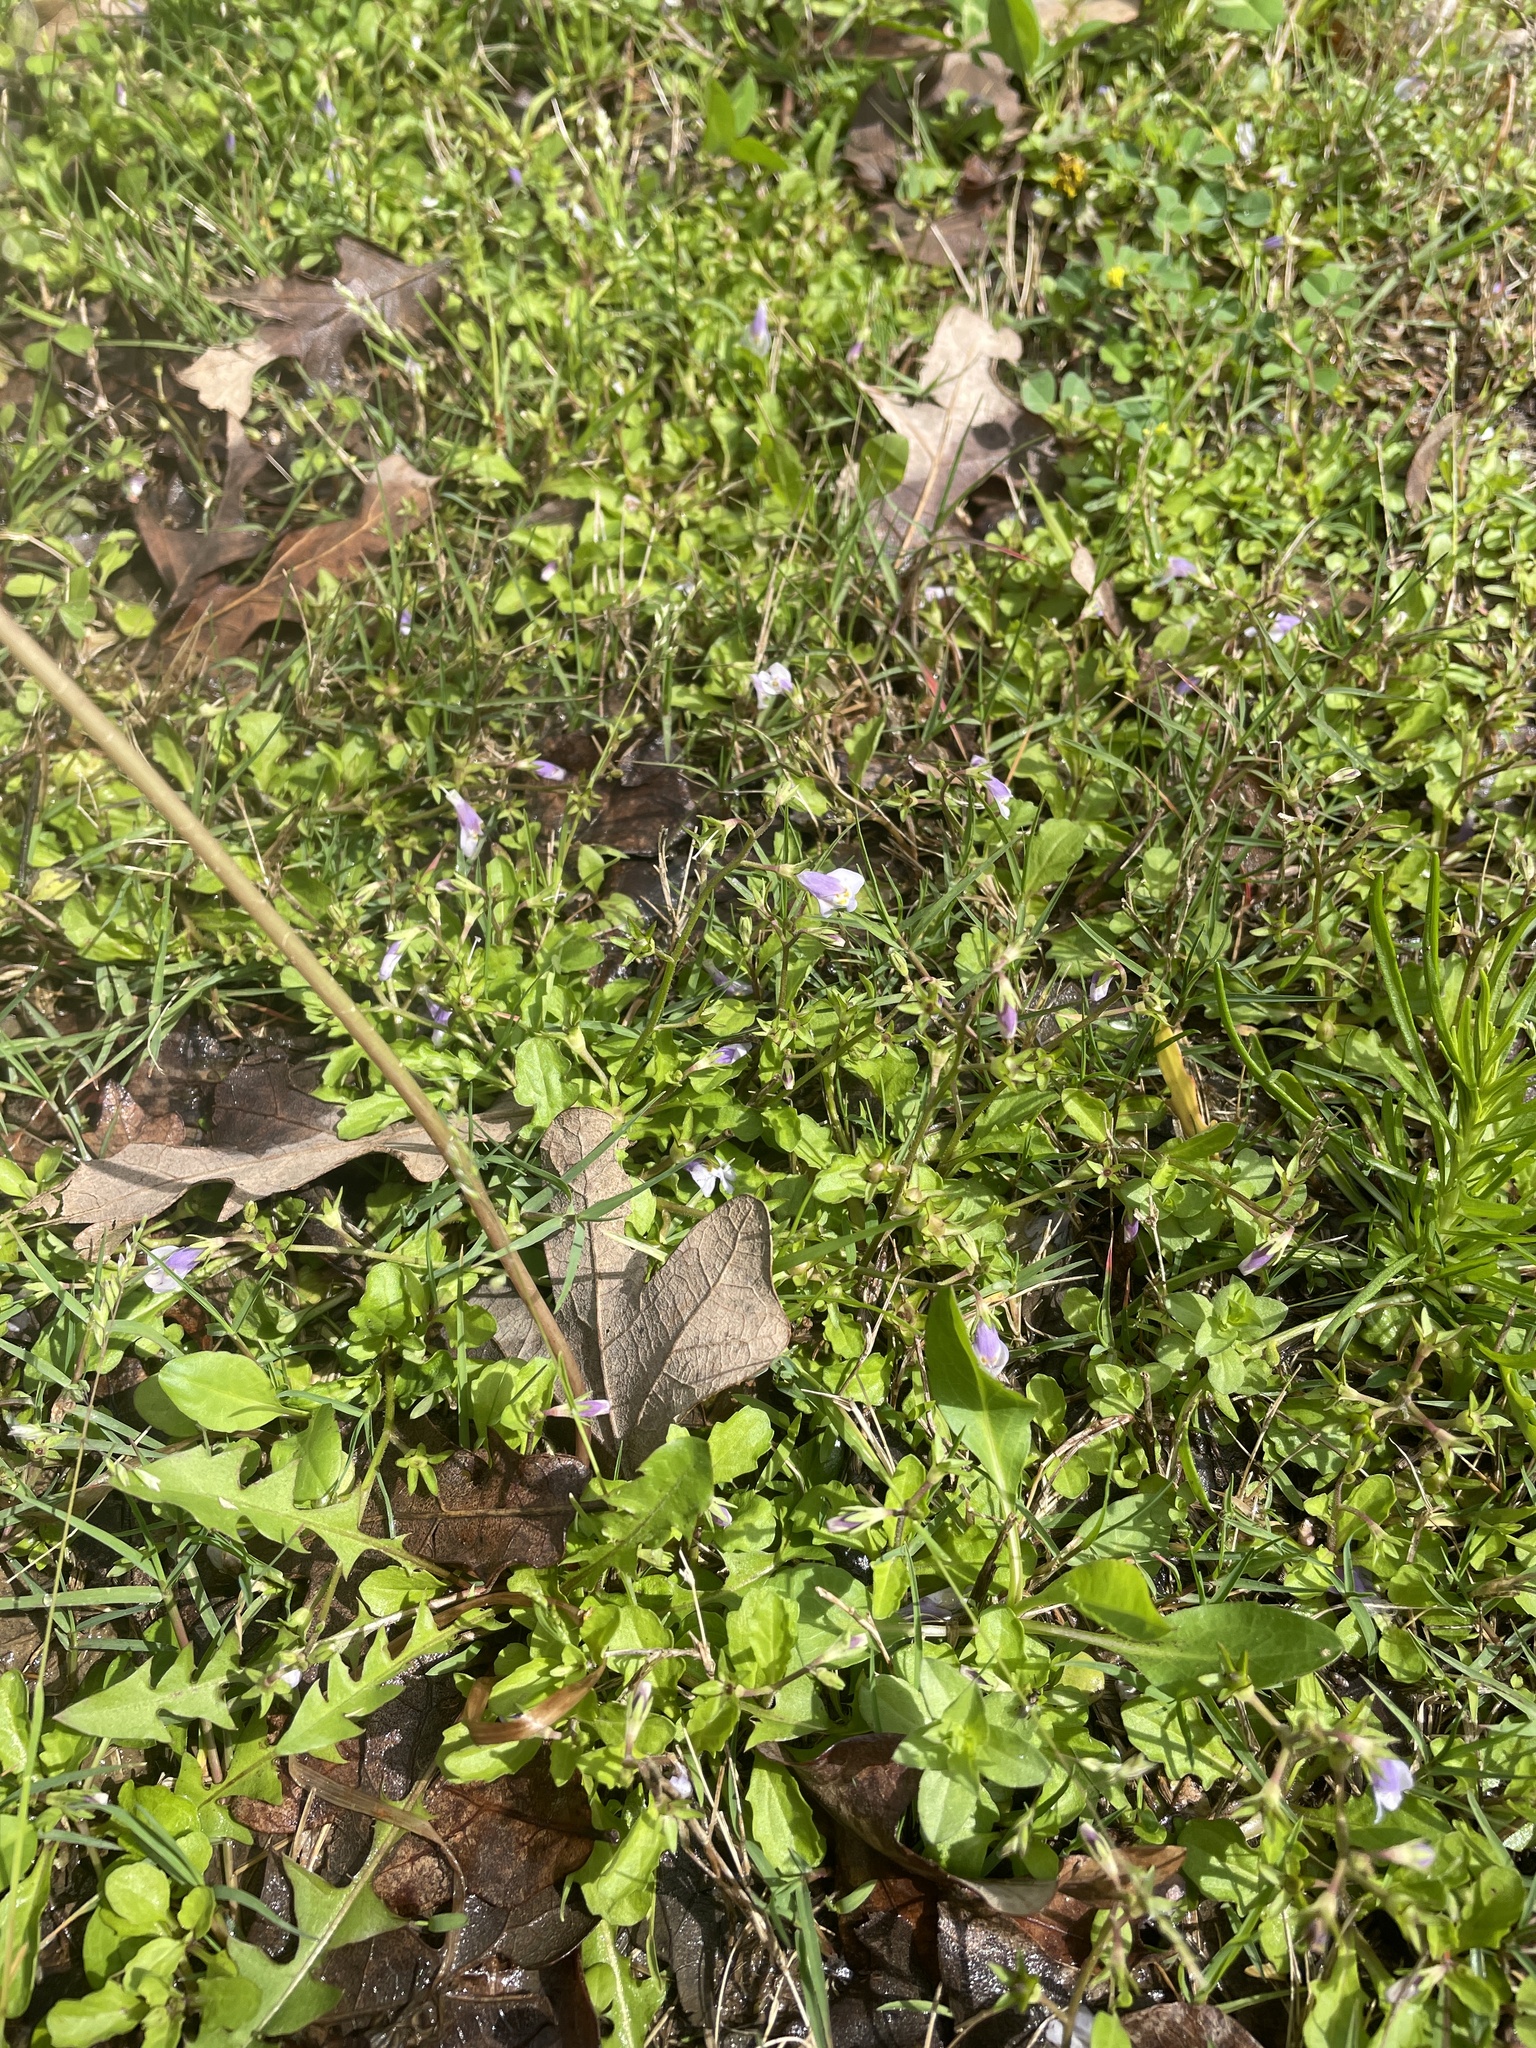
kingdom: Plantae
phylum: Tracheophyta
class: Magnoliopsida
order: Lamiales
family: Mazaceae
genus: Mazus
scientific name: Mazus pumilus
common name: Japanese mazus
